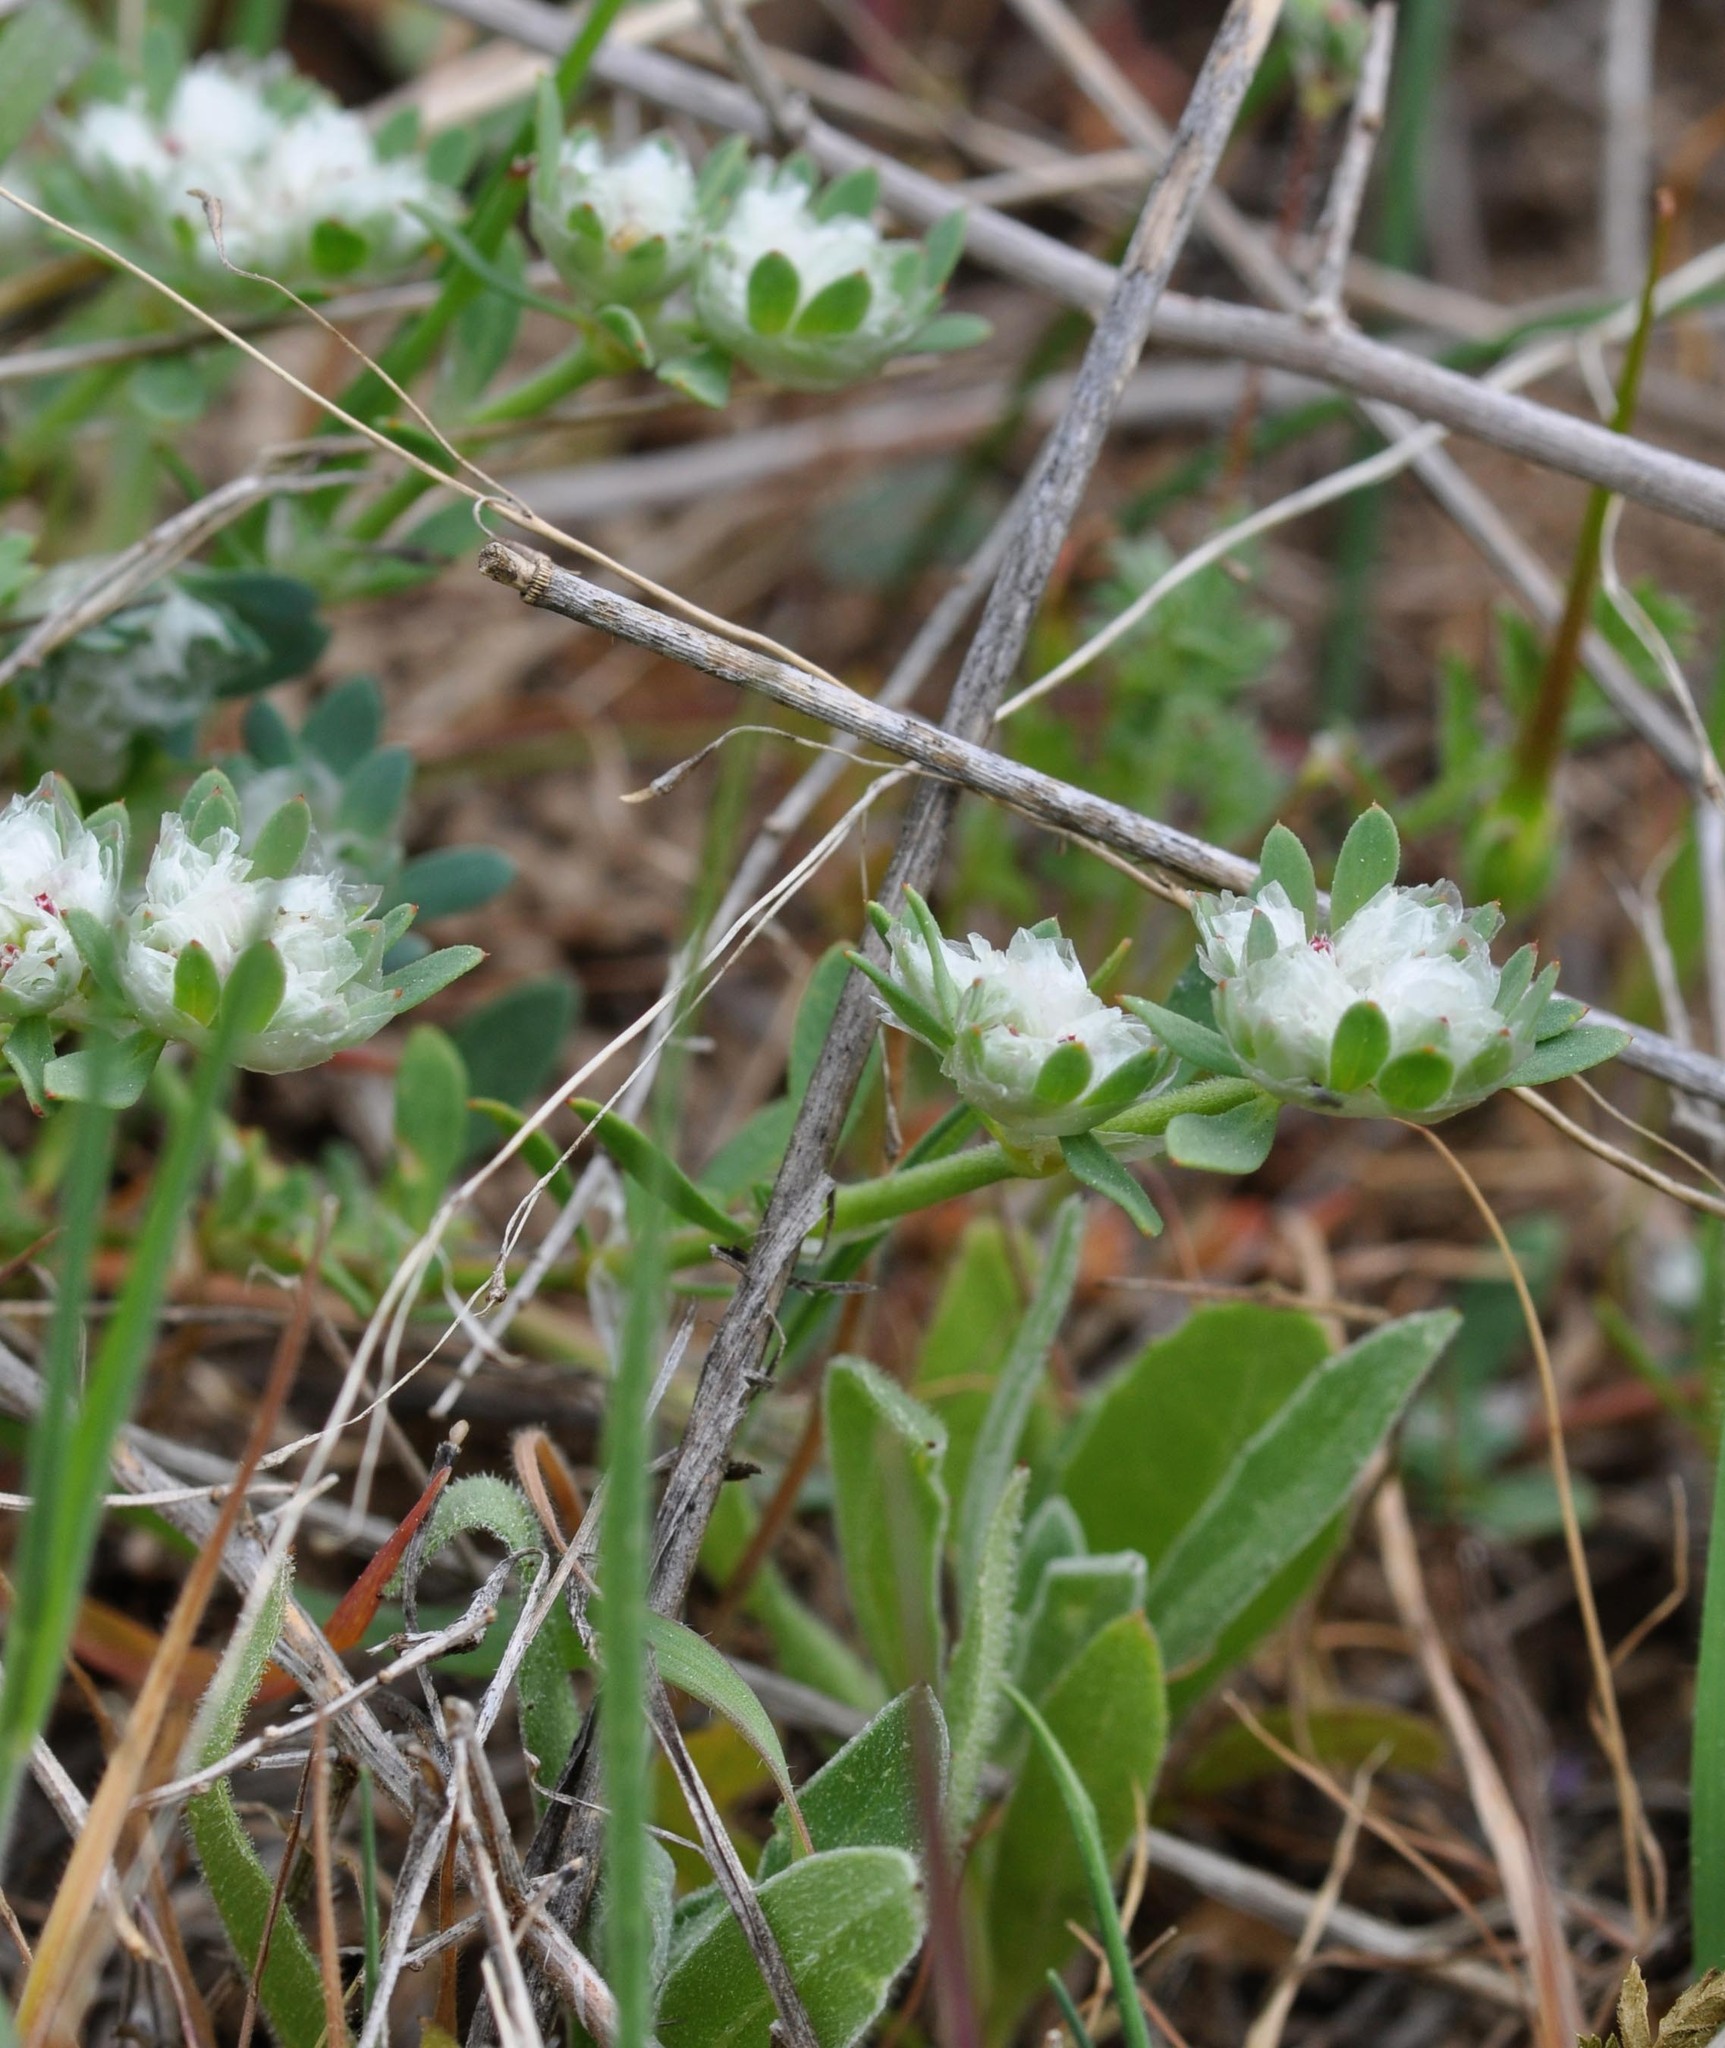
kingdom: Plantae
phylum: Tracheophyta
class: Magnoliopsida
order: Caryophyllales
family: Caryophyllaceae
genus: Paronychia
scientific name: Paronychia argentea
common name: Silver nailroot
